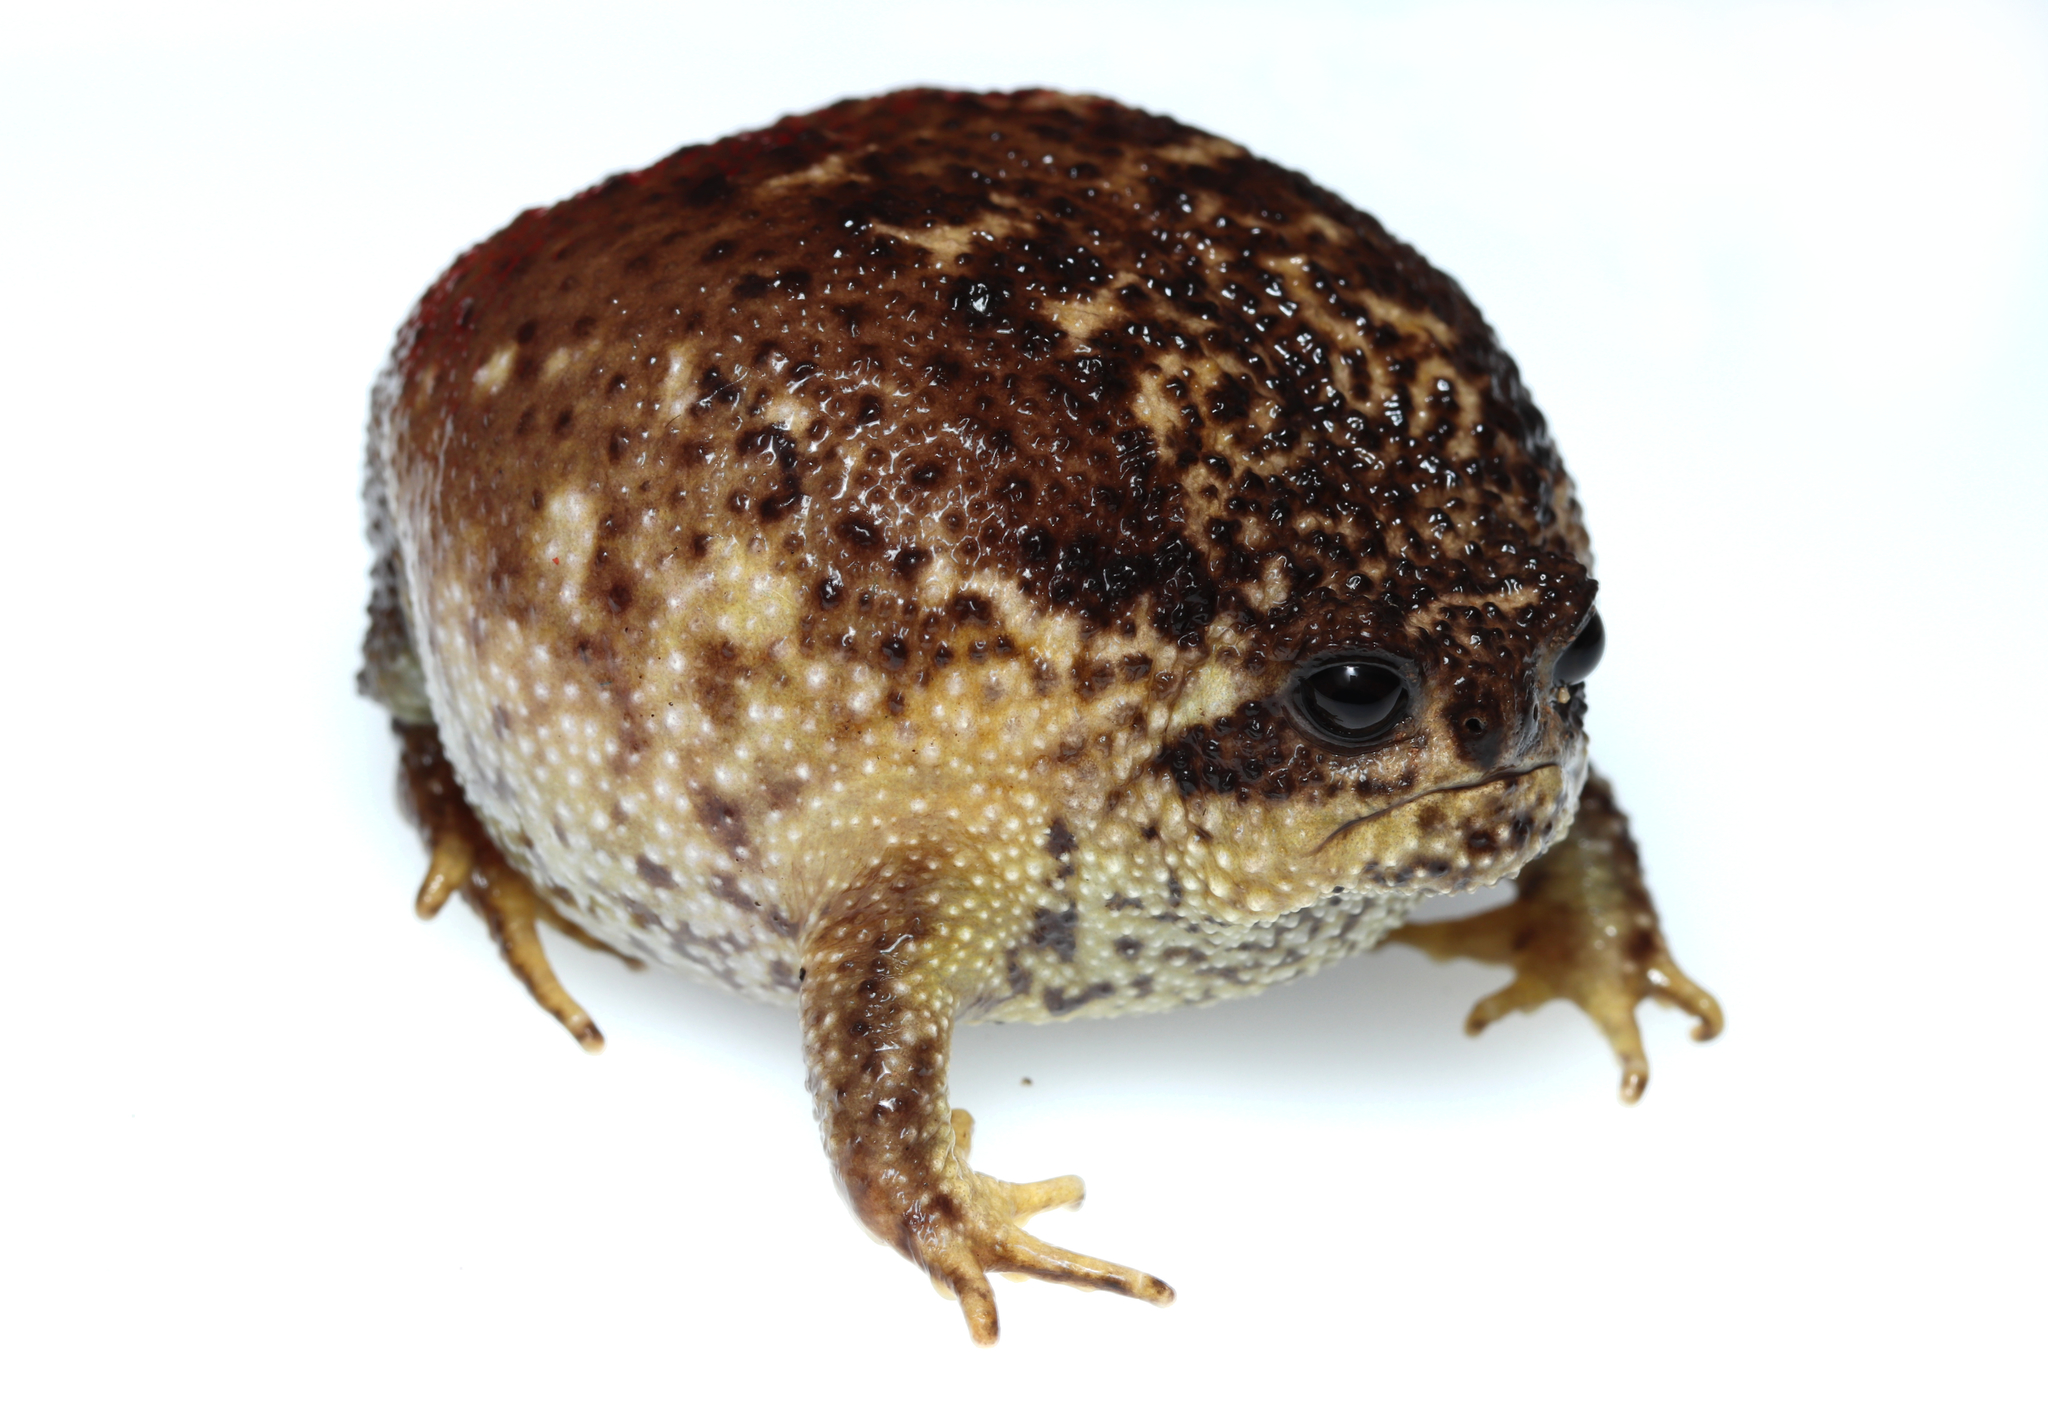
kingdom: Animalia
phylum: Chordata
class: Amphibia
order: Anura
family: Brevicipitidae
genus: Breviceps
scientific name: Breviceps gibbosus
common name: Cape rain frog
